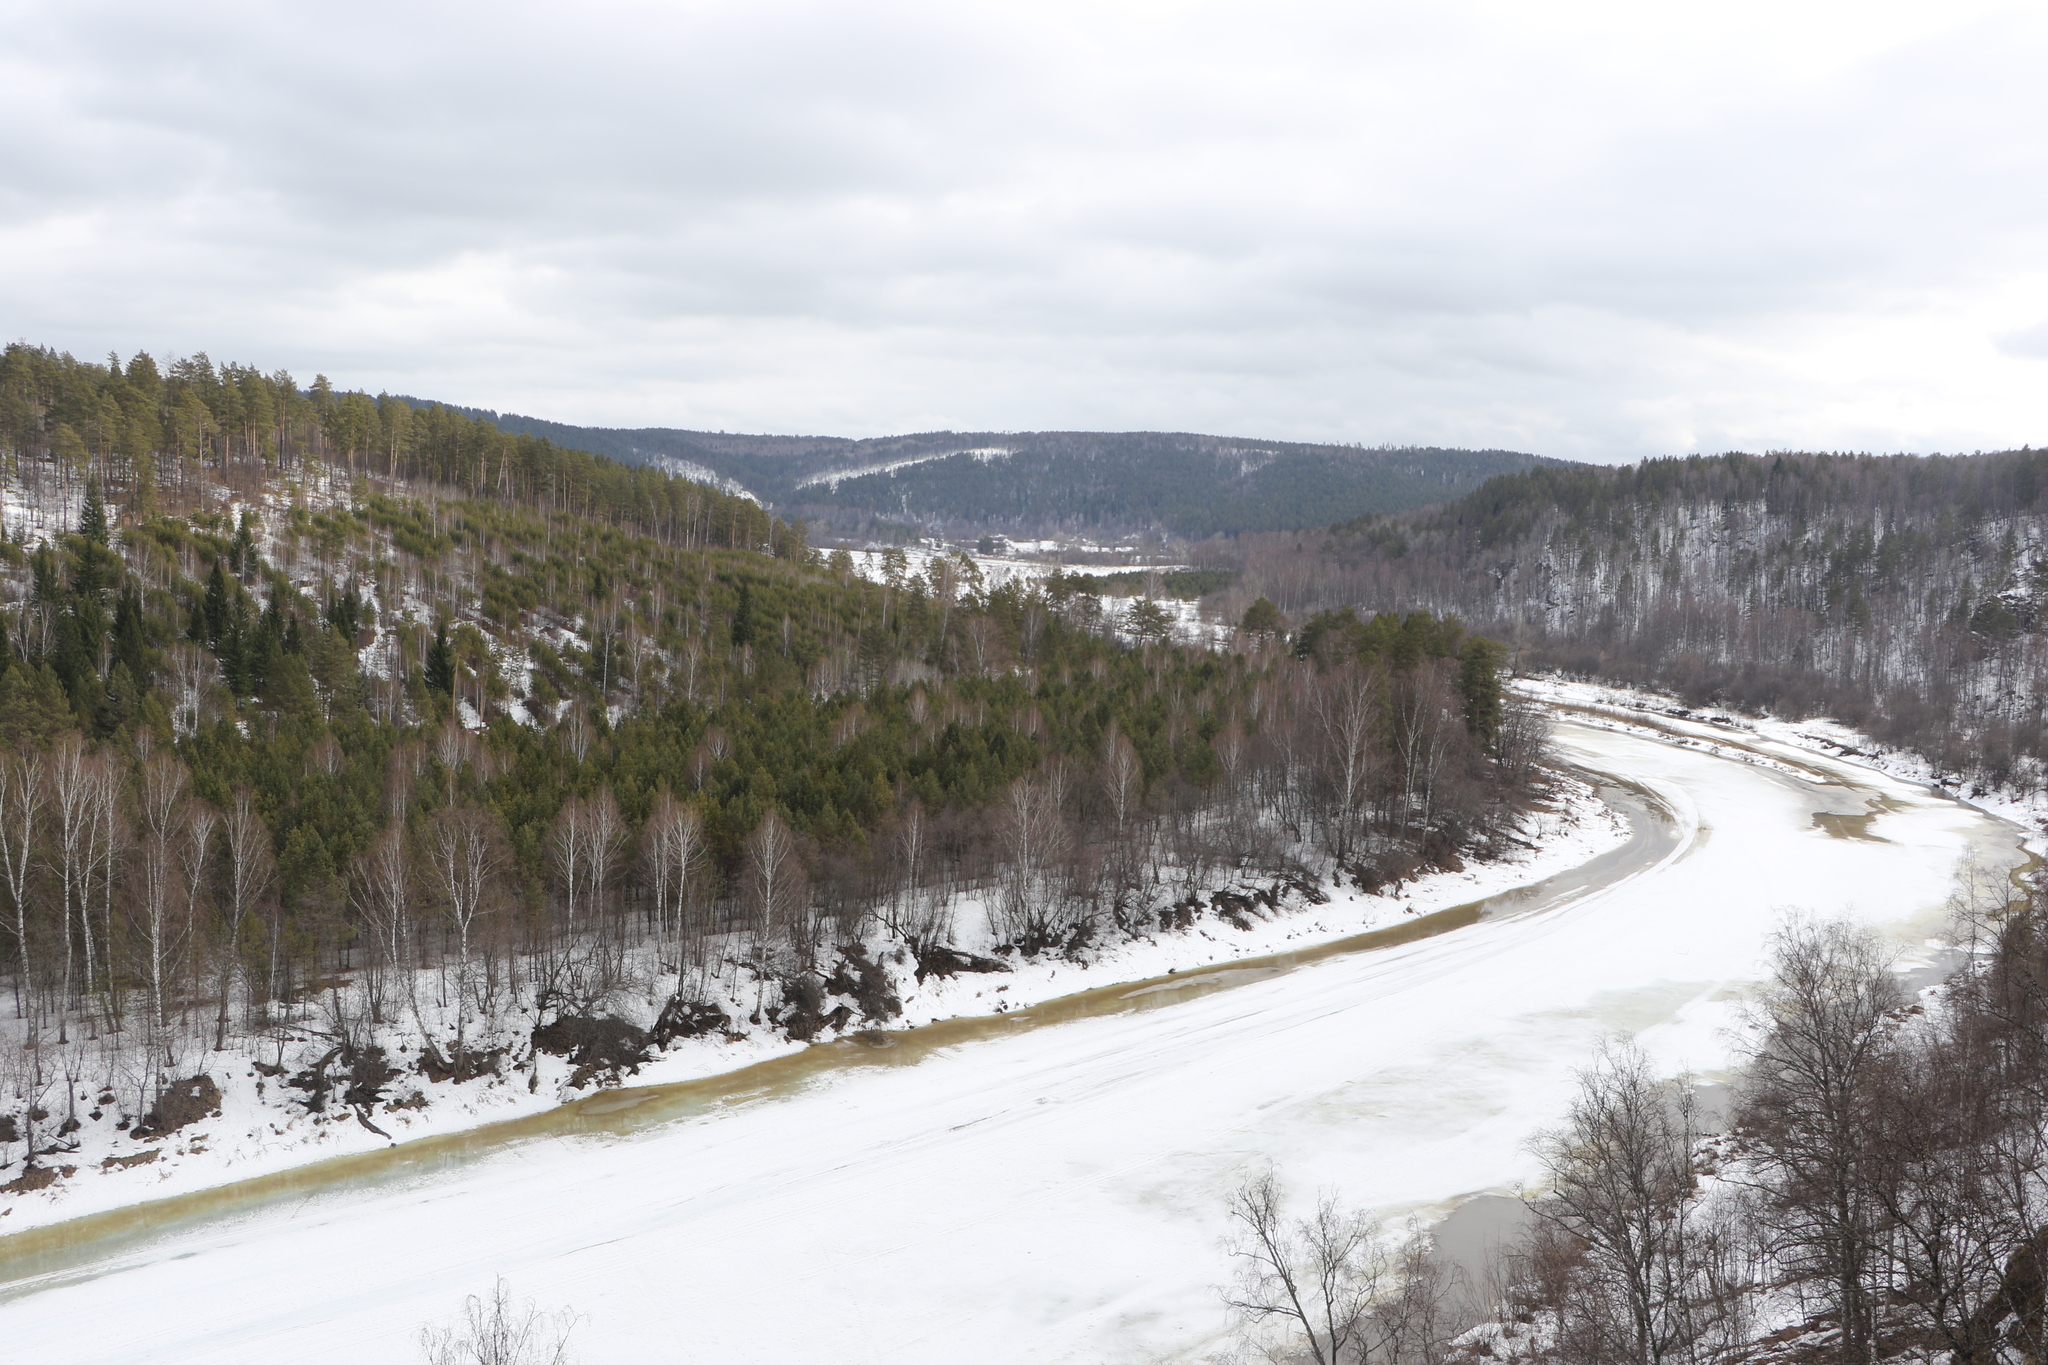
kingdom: Plantae
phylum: Tracheophyta
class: Pinopsida
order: Pinales
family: Pinaceae
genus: Pinus
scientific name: Pinus sylvestris
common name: Scots pine
